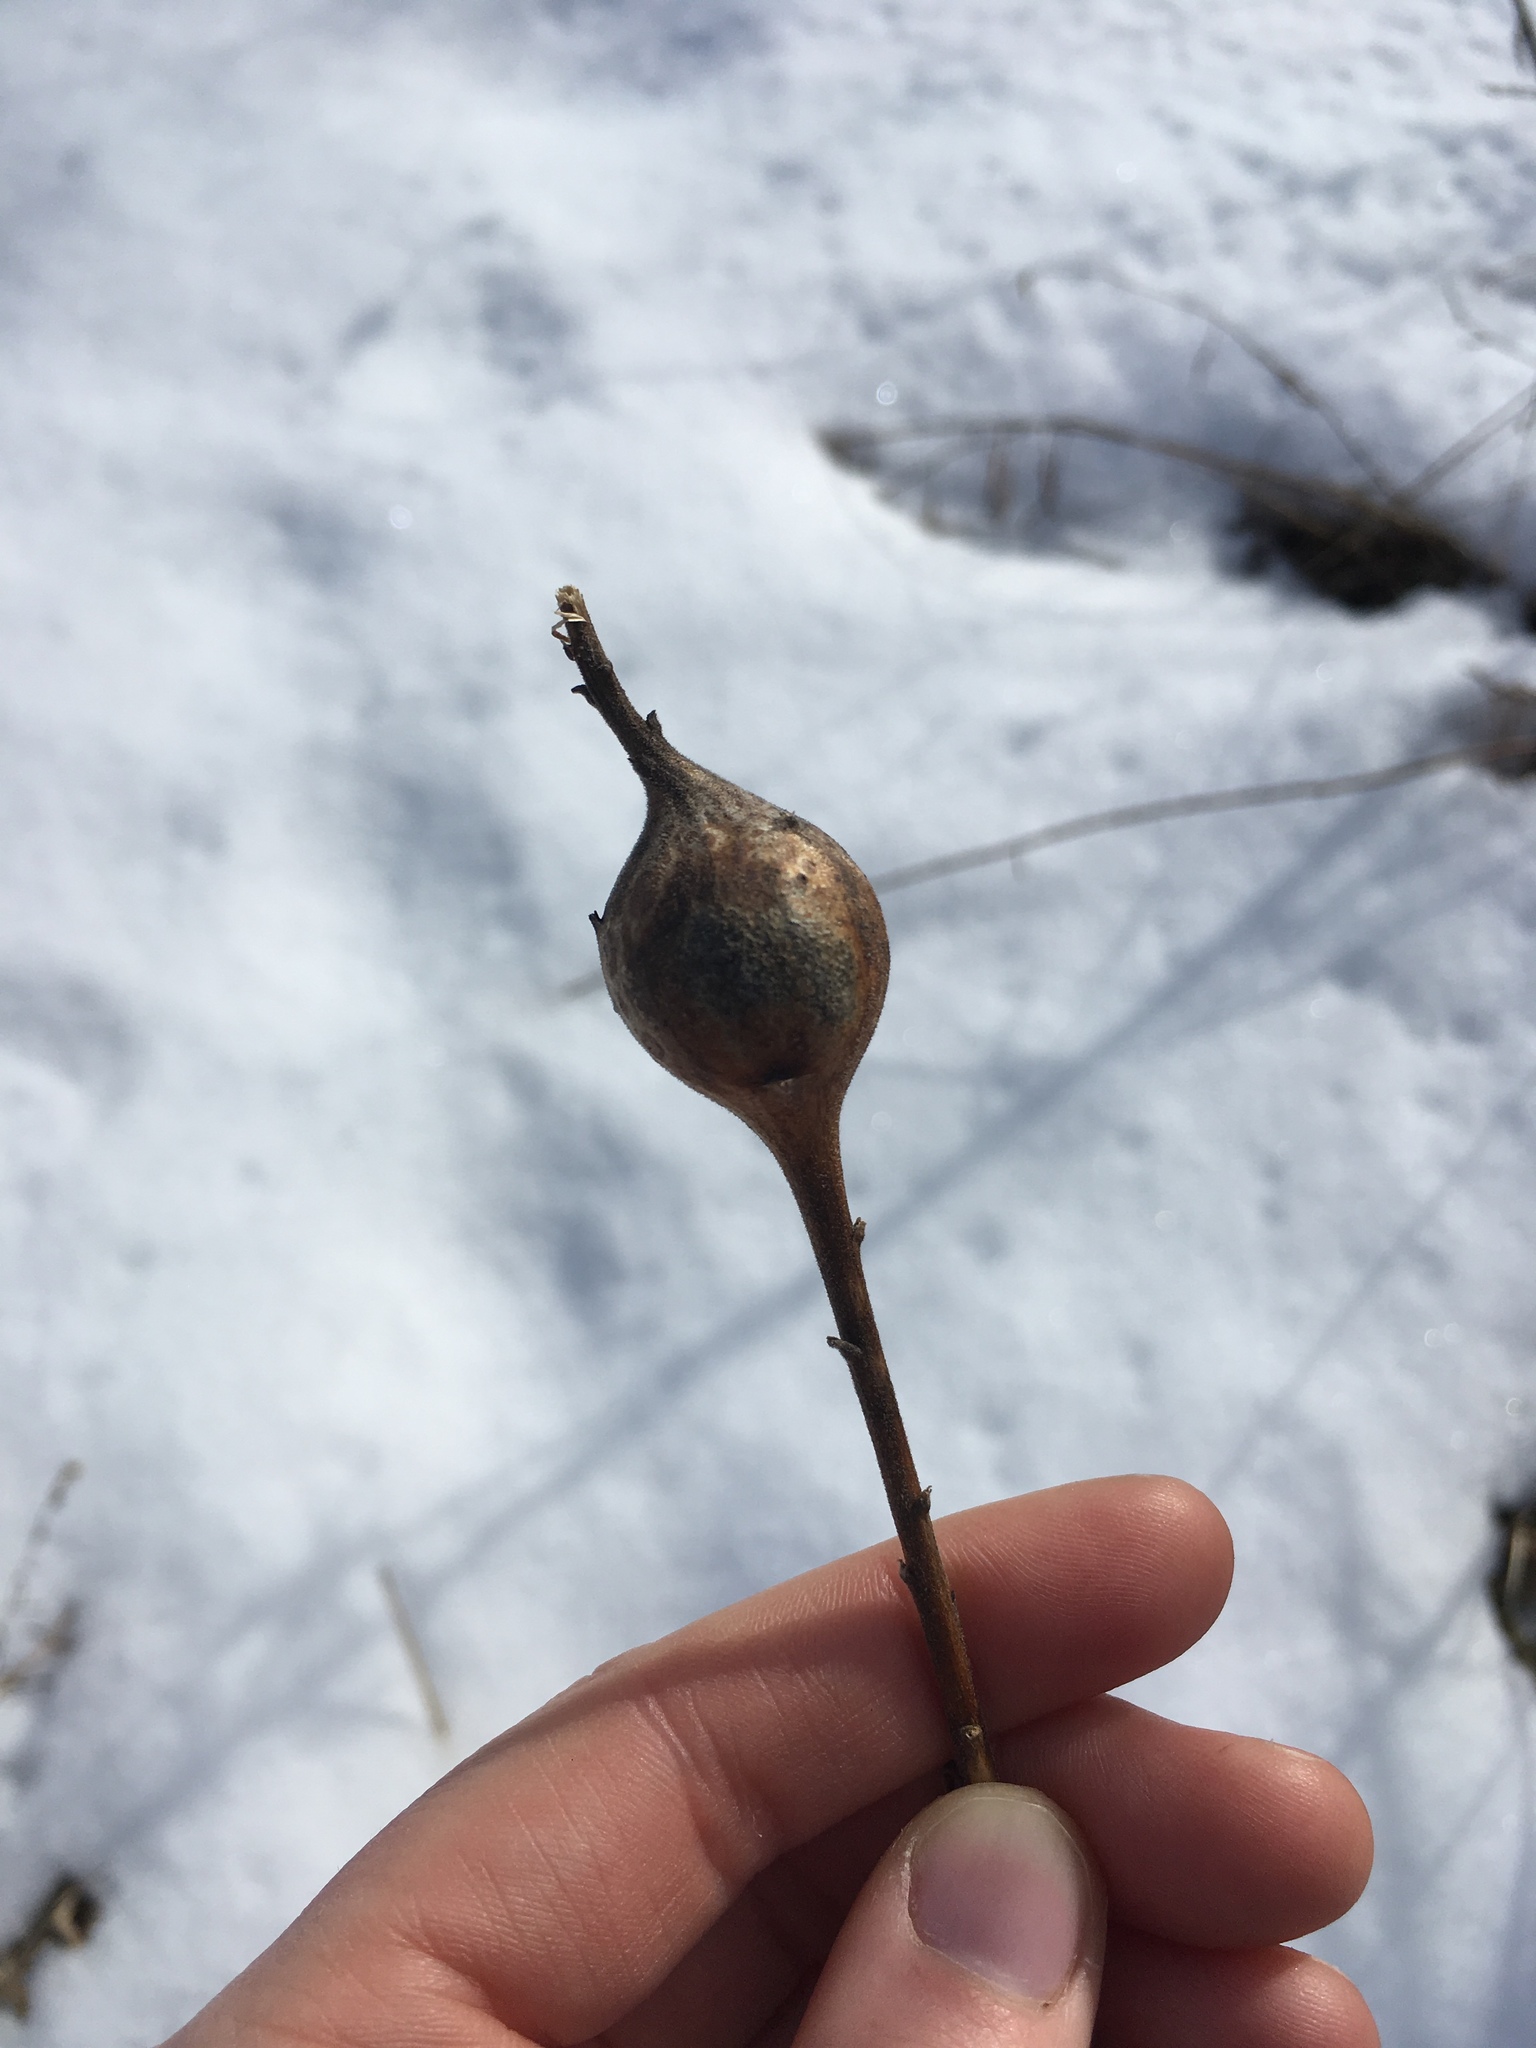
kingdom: Animalia
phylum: Arthropoda
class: Insecta
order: Diptera
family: Tephritidae
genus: Eurosta
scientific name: Eurosta solidaginis
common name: Goldenrod gall fly
